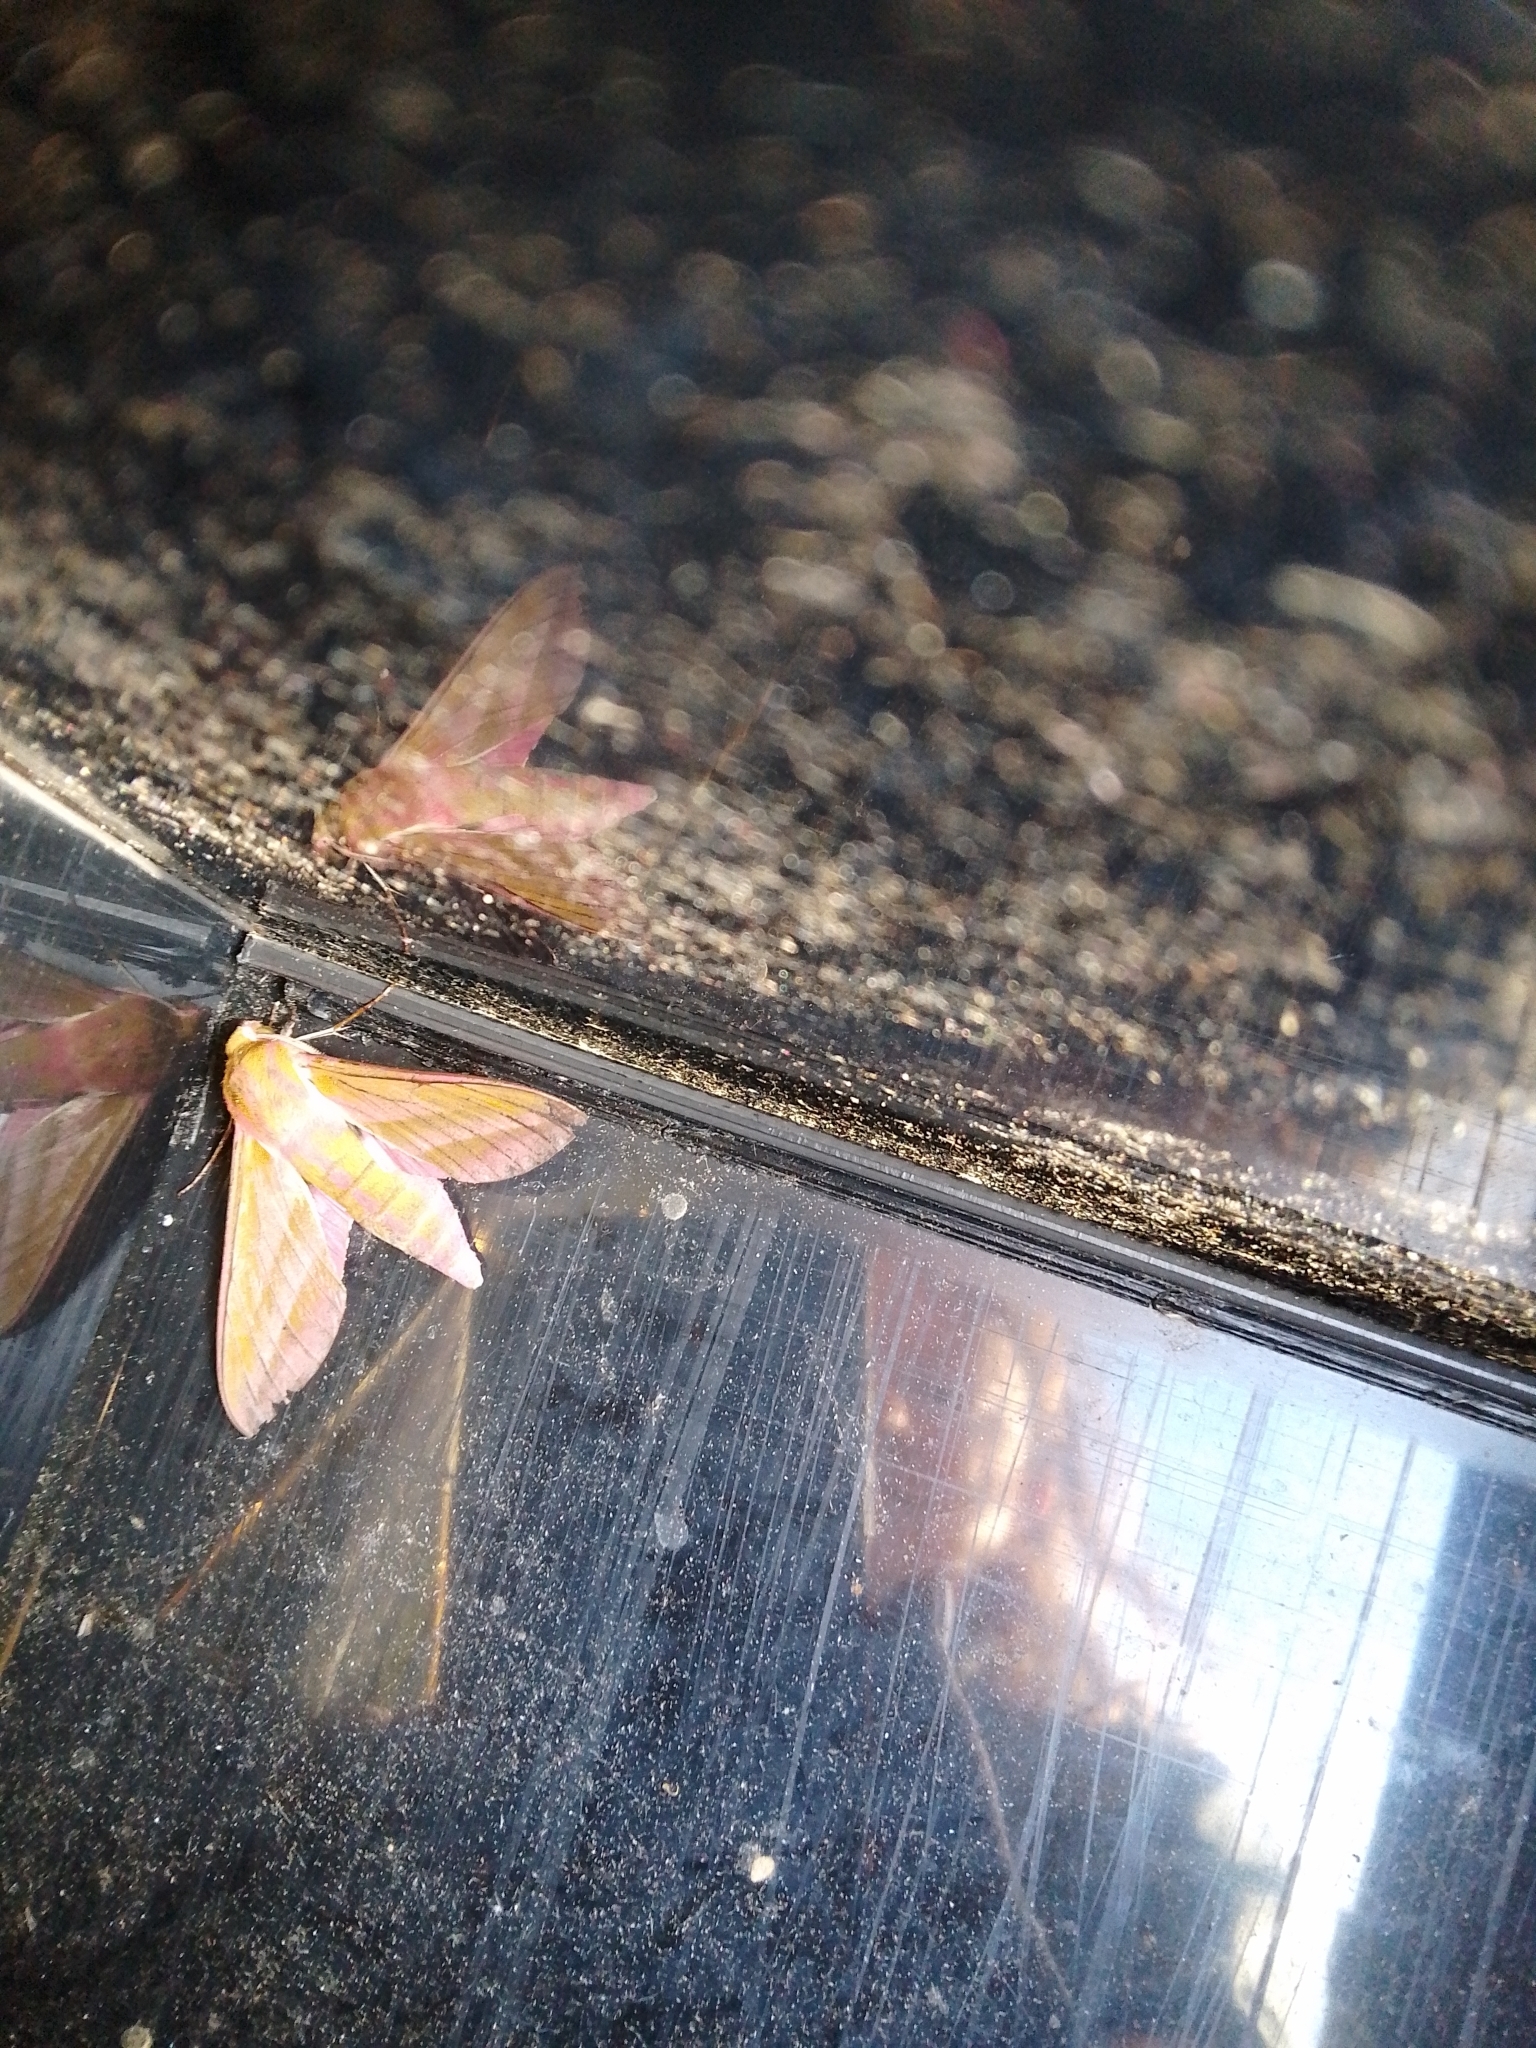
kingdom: Animalia
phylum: Arthropoda
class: Insecta
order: Lepidoptera
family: Sphingidae
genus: Deilephila
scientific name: Deilephila elpenor
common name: Elephant hawk-moth
